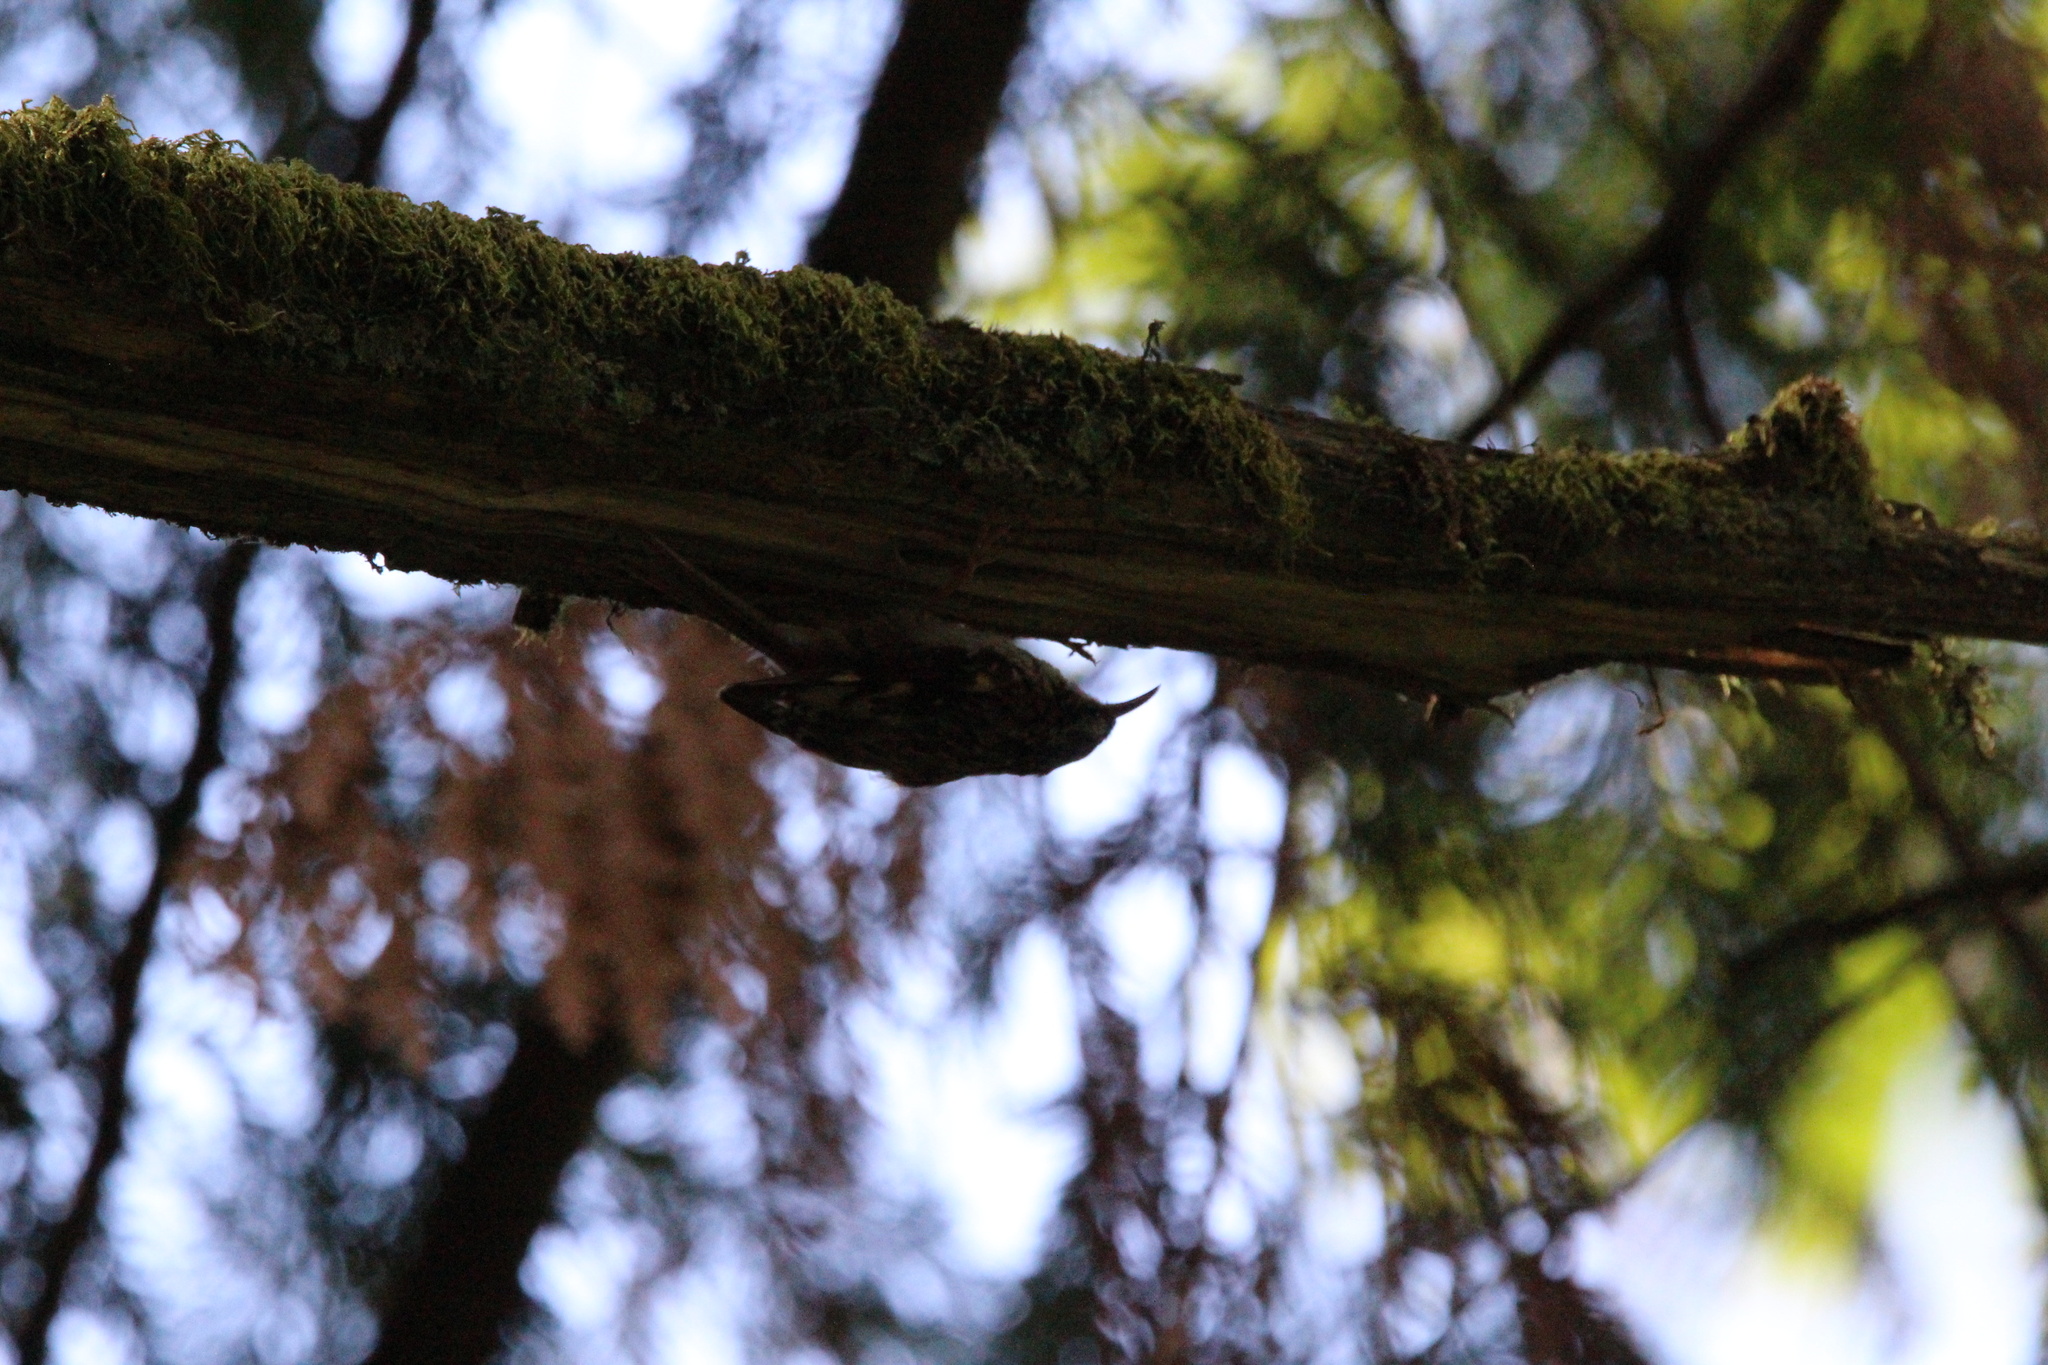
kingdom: Animalia
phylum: Chordata
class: Aves
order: Passeriformes
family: Certhiidae
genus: Certhia
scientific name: Certhia americana
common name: Brown creeper
